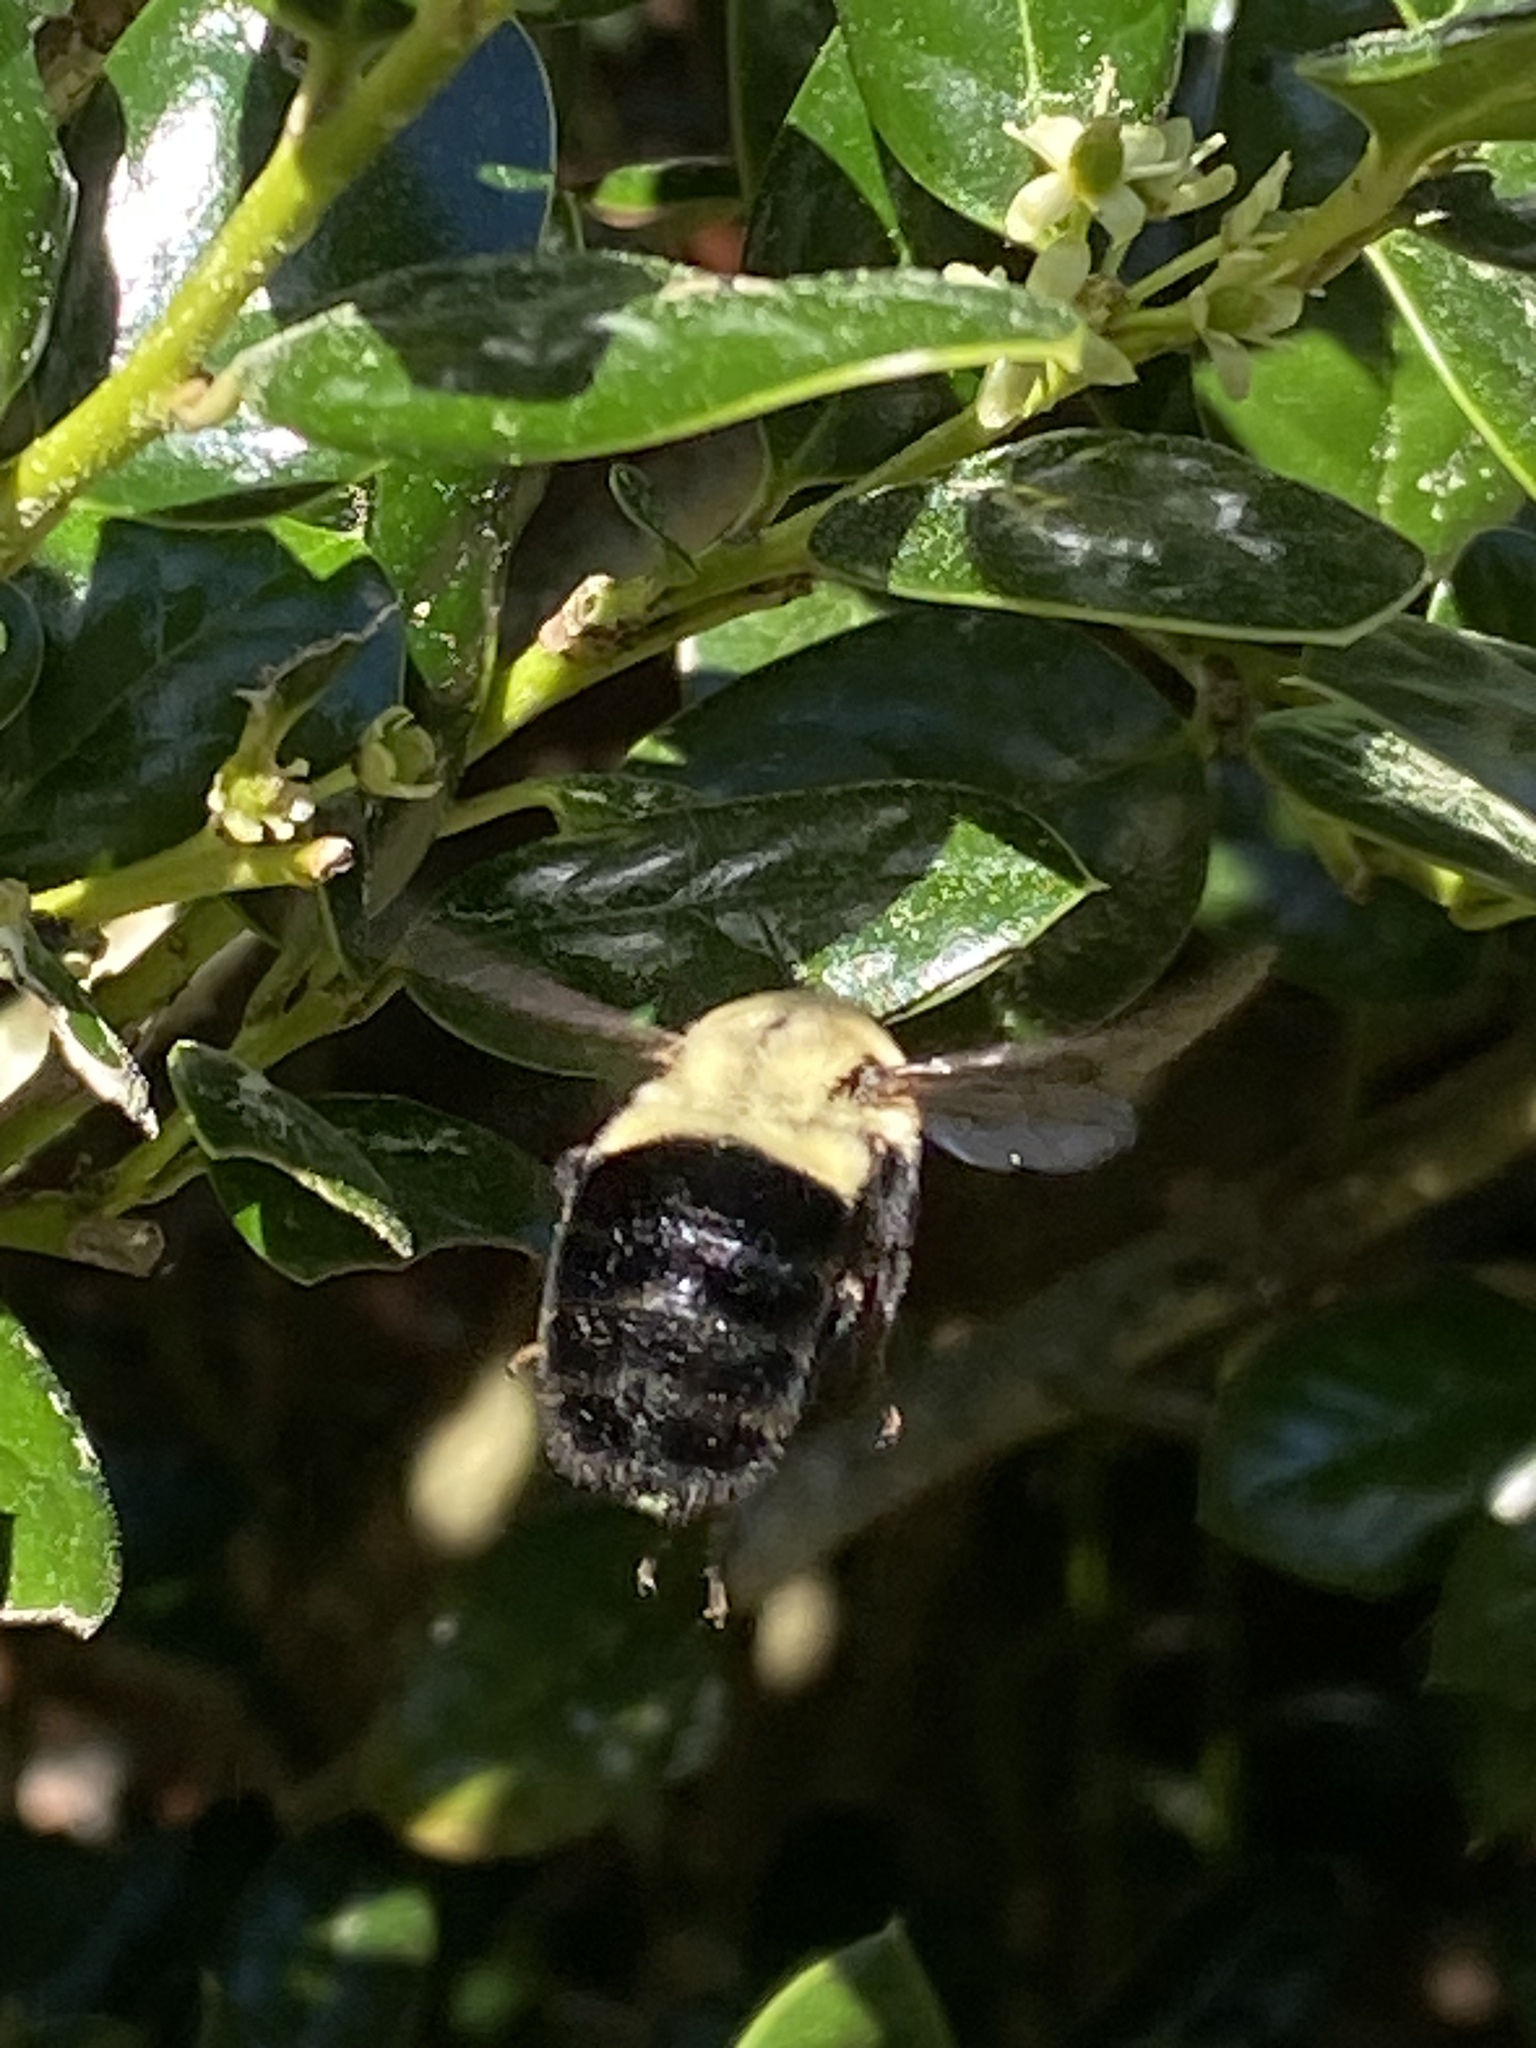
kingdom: Animalia
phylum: Arthropoda
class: Insecta
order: Hymenoptera
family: Apidae
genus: Bombus
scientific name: Bombus impatiens
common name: Common eastern bumble bee
